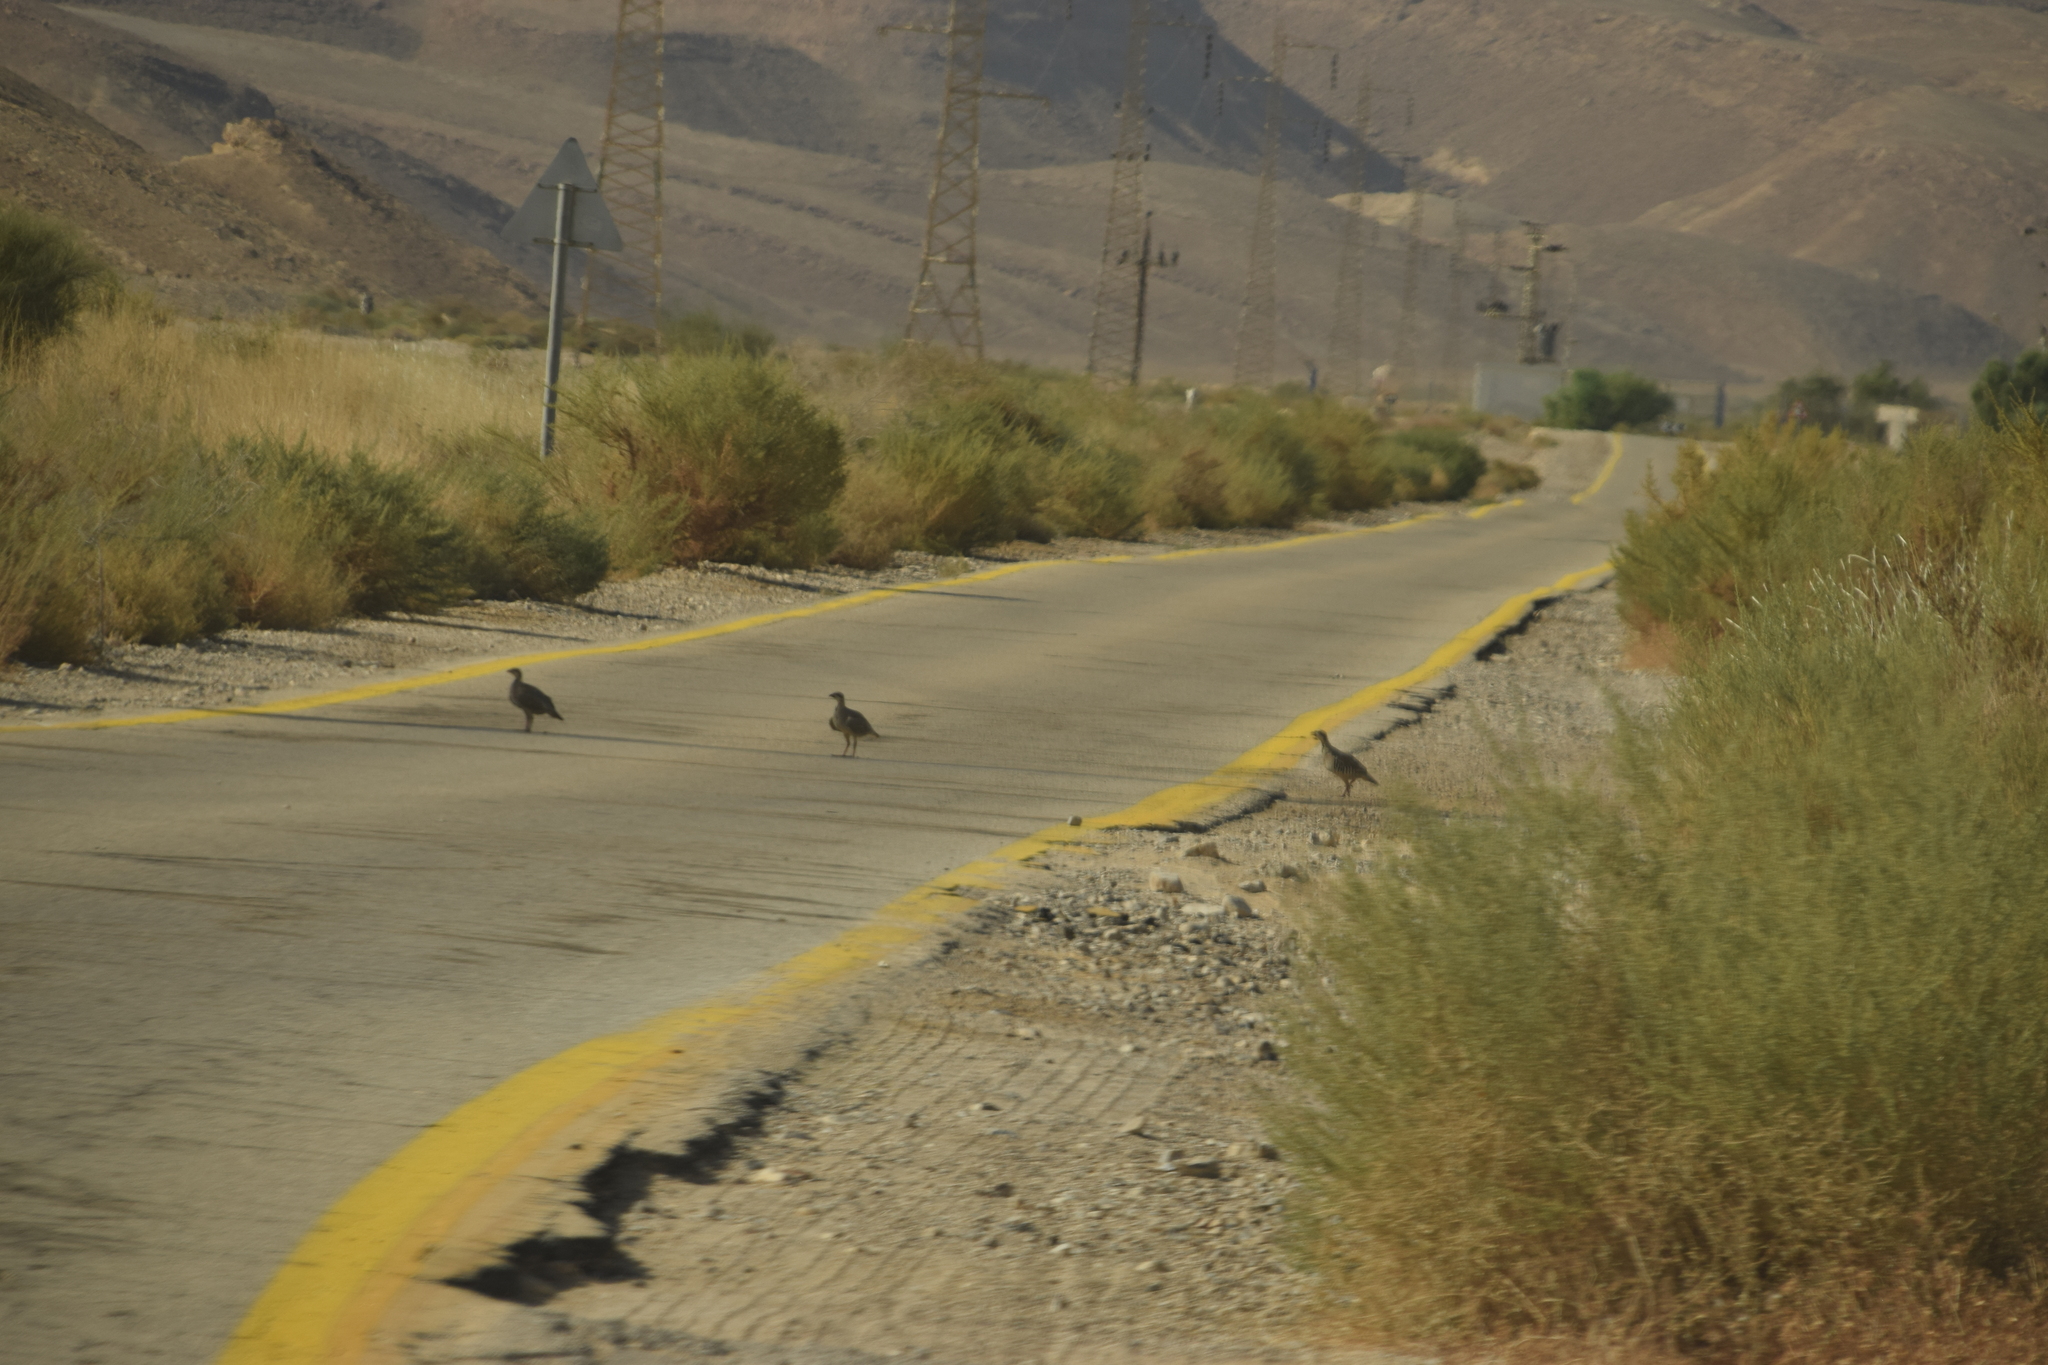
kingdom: Animalia
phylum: Chordata
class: Aves
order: Galliformes
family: Phasianidae
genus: Alectoris
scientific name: Alectoris chukar
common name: Chukar
